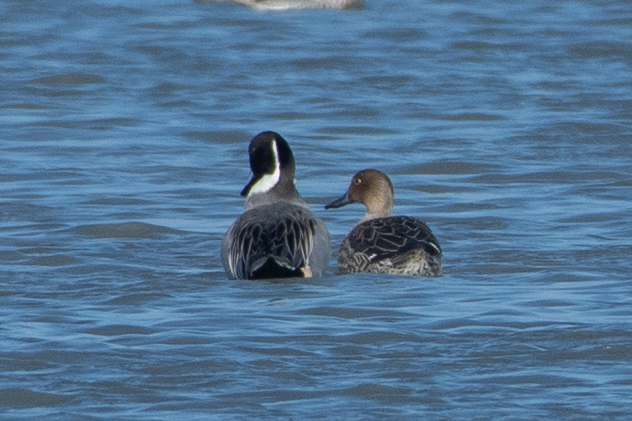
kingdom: Animalia
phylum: Chordata
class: Aves
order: Anseriformes
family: Anatidae
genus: Anas
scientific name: Anas acuta
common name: Northern pintail
